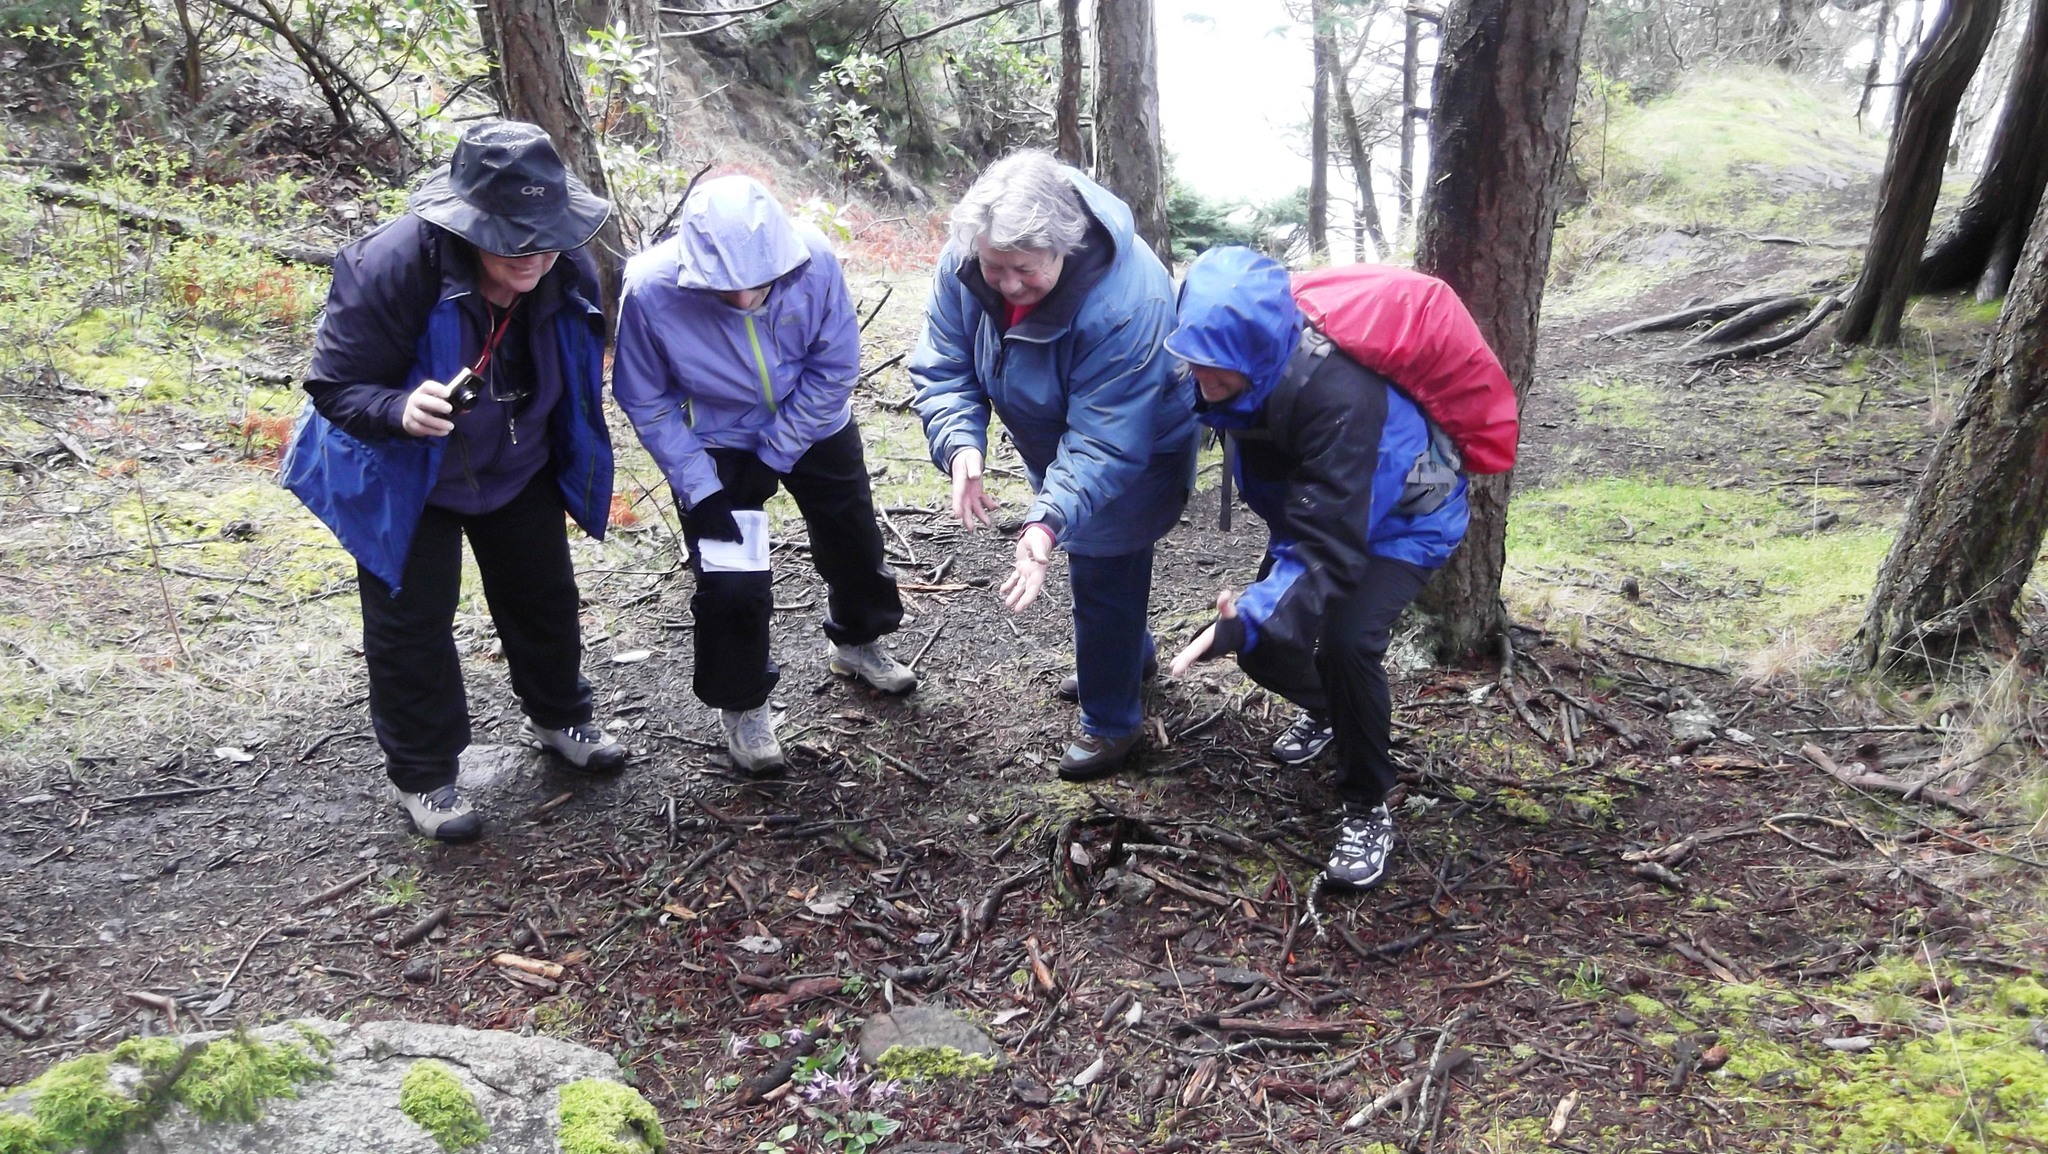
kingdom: Plantae
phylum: Tracheophyta
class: Liliopsida
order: Asparagales
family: Orchidaceae
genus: Calypso
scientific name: Calypso bulbosa
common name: Calypso
